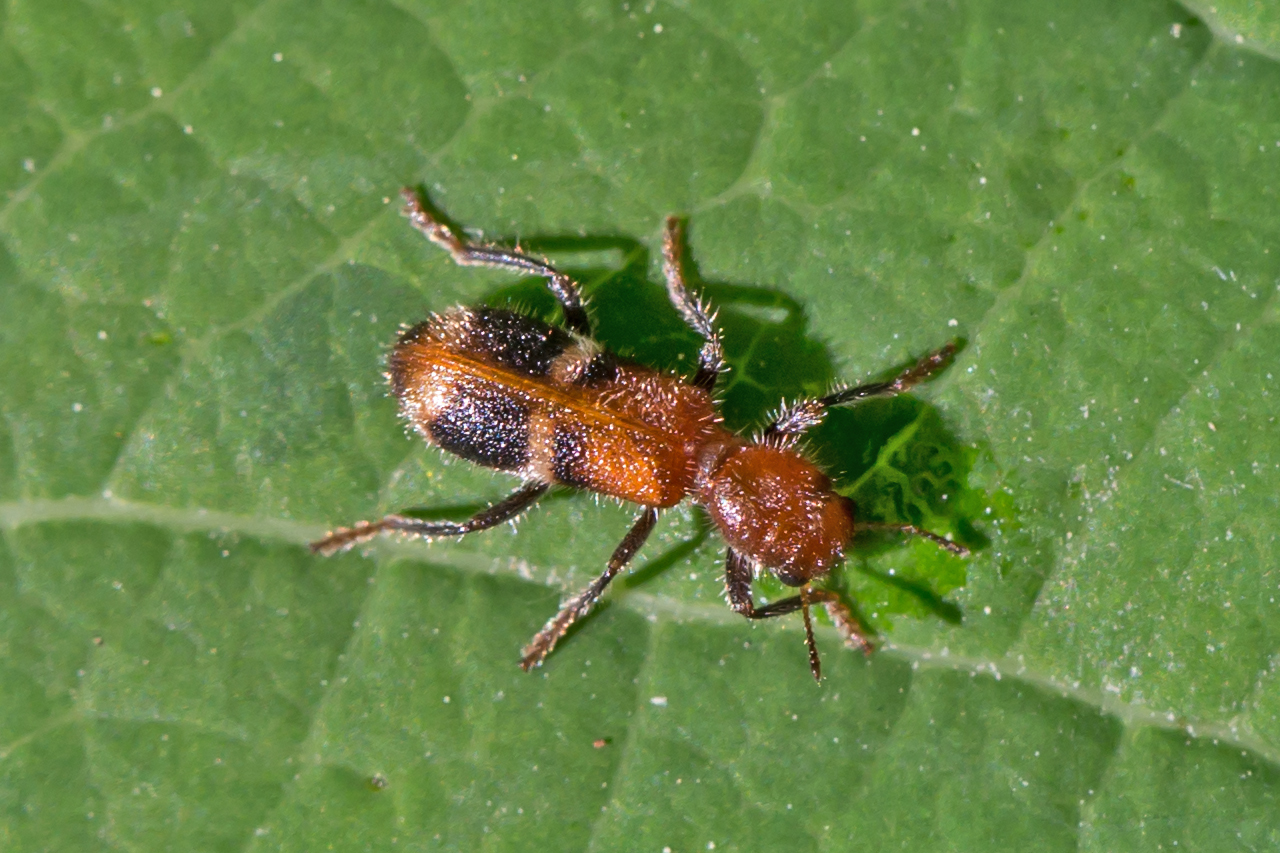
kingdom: Animalia
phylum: Arthropoda
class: Insecta
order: Coleoptera
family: Cleridae
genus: Enoclerus
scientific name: Enoclerus rosmarus
